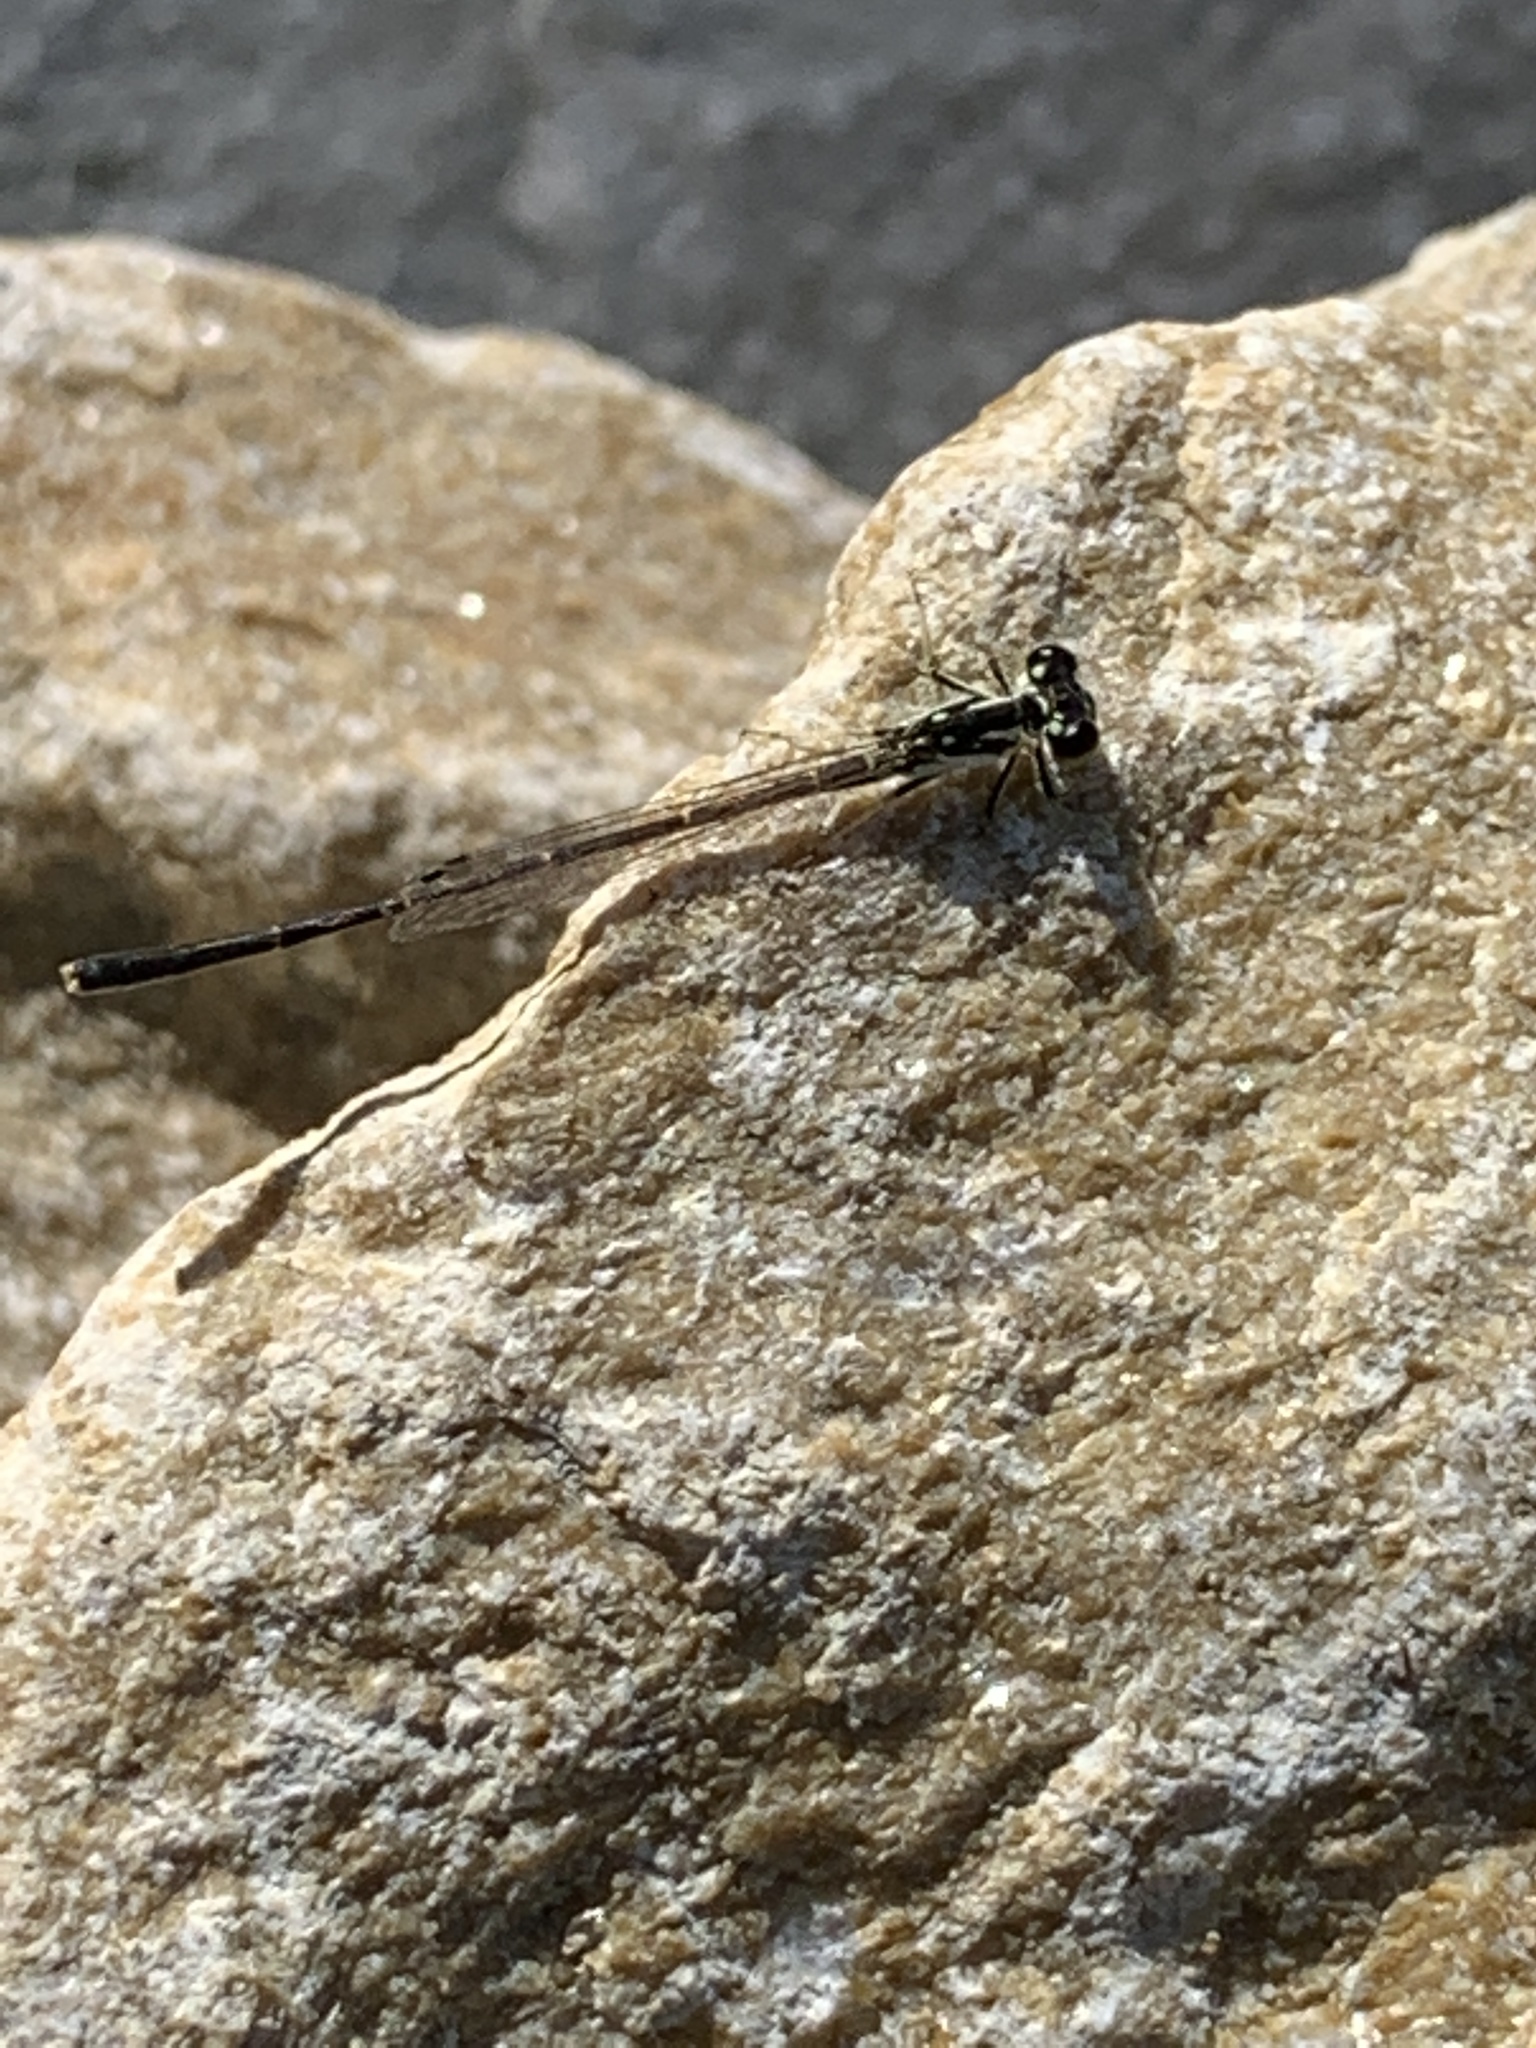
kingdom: Animalia
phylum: Arthropoda
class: Insecta
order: Odonata
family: Coenagrionidae
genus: Ischnura
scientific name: Ischnura posita
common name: Fragile forktail
